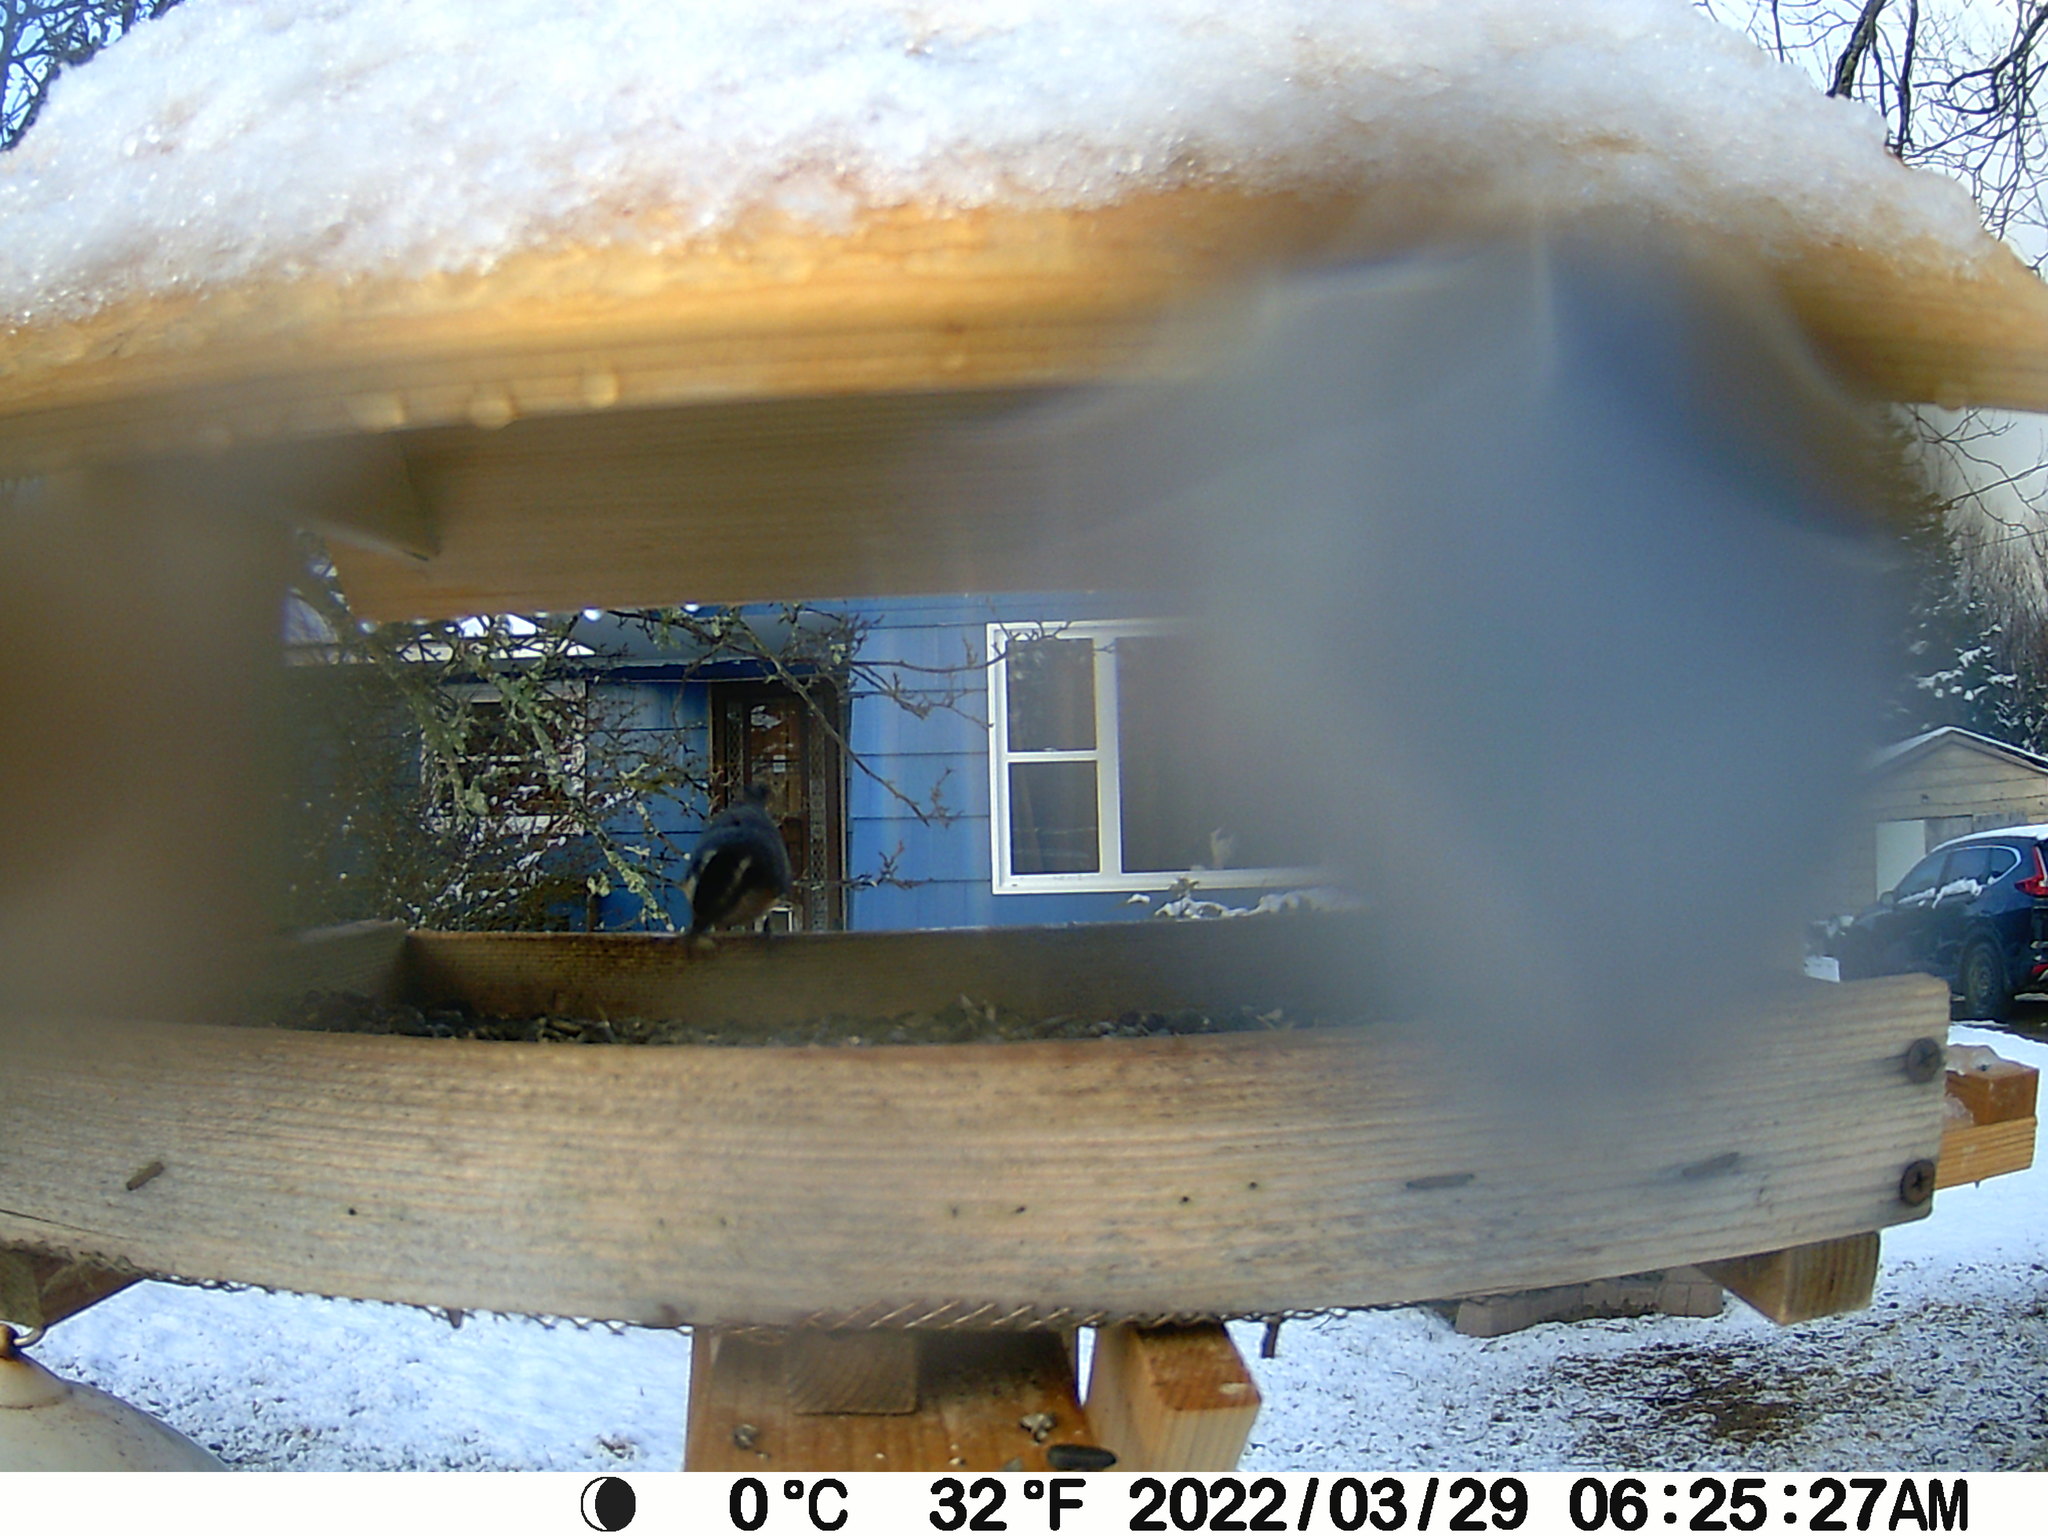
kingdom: Animalia
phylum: Chordata
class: Aves
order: Passeriformes
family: Sittidae
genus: Sitta
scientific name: Sitta canadensis
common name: Red-breasted nuthatch
